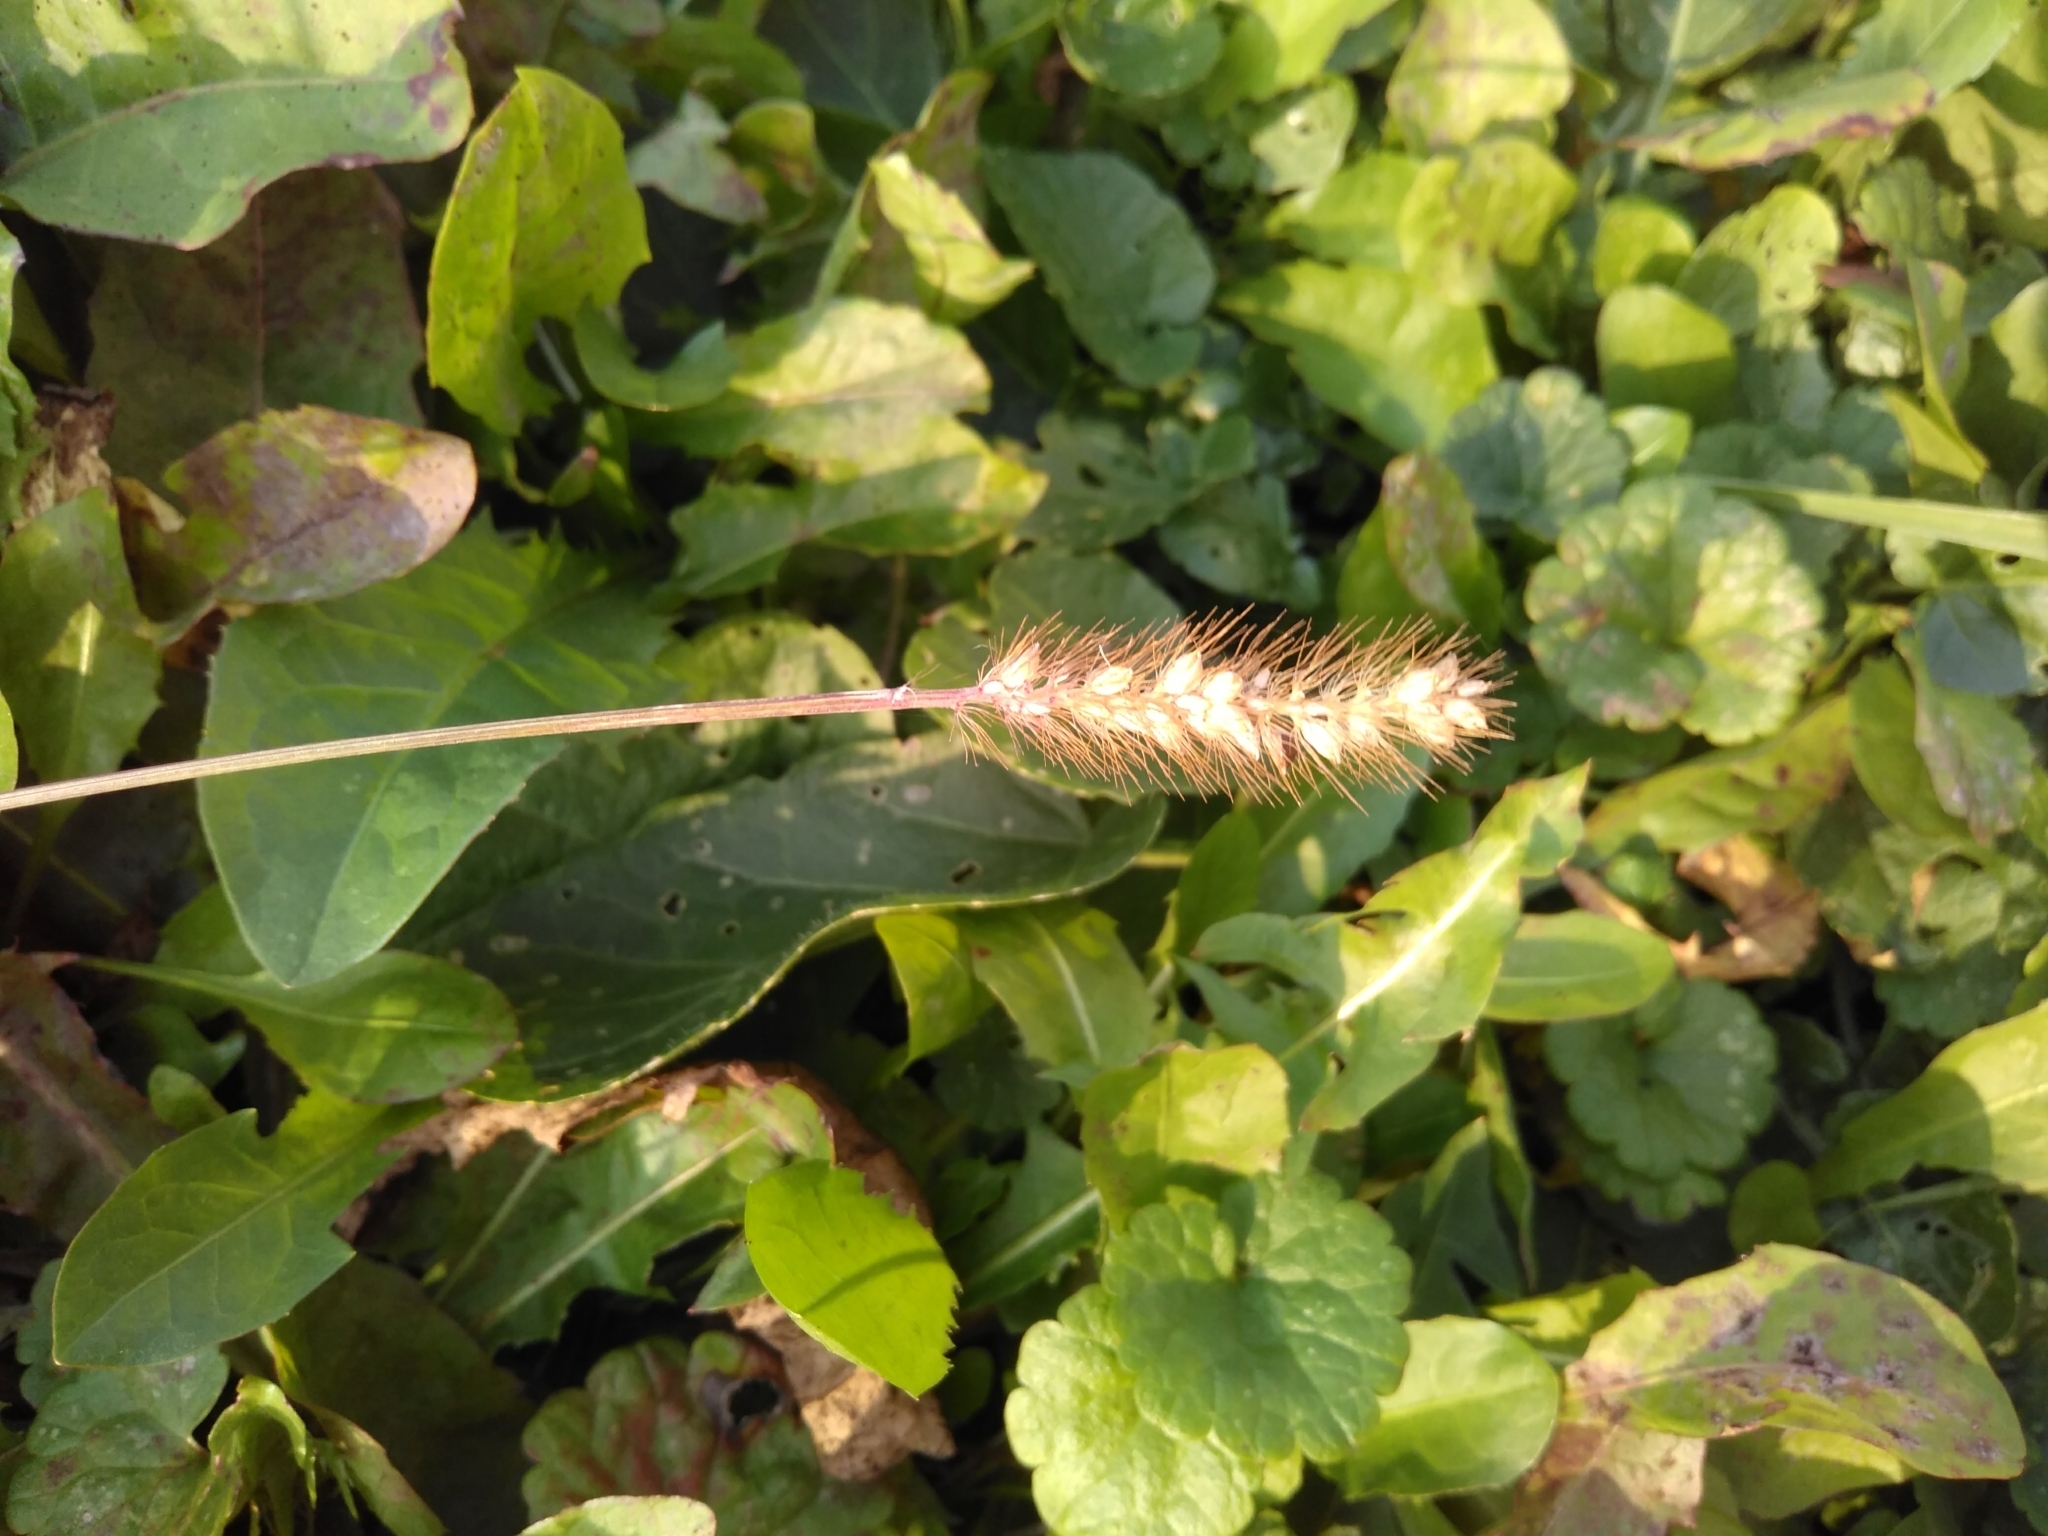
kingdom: Plantae
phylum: Tracheophyta
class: Liliopsida
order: Poales
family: Poaceae
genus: Setaria
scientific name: Setaria pumila
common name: Yellow bristle-grass
